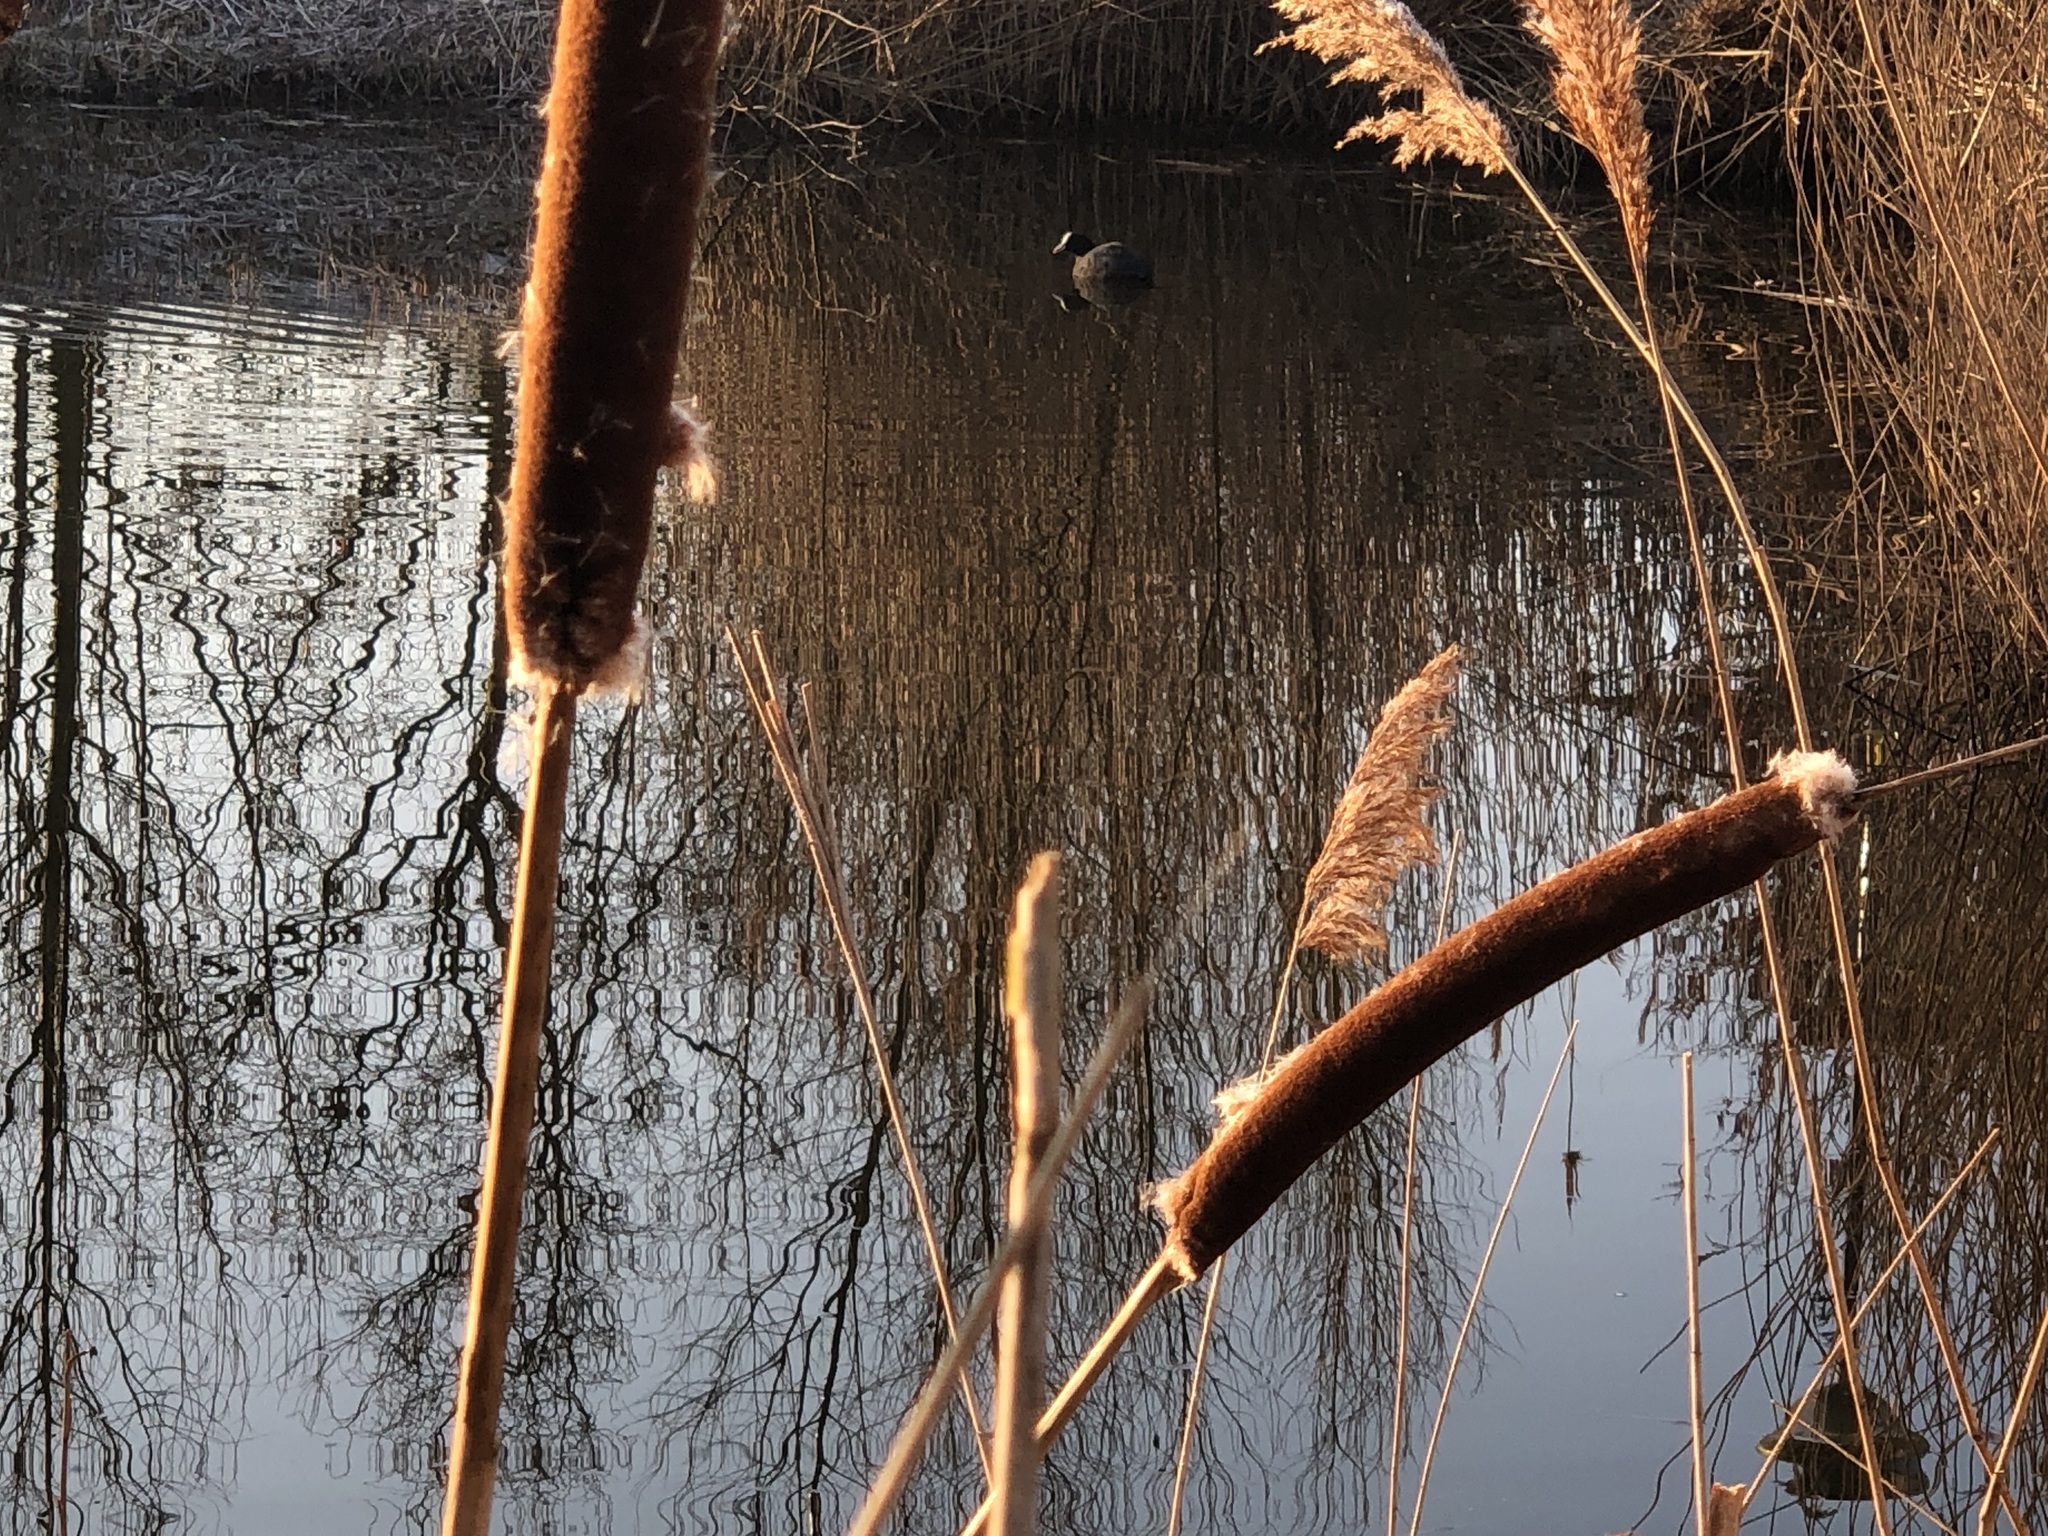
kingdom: Animalia
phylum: Chordata
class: Aves
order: Gruiformes
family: Rallidae
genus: Fulica
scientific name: Fulica atra
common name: Eurasian coot
